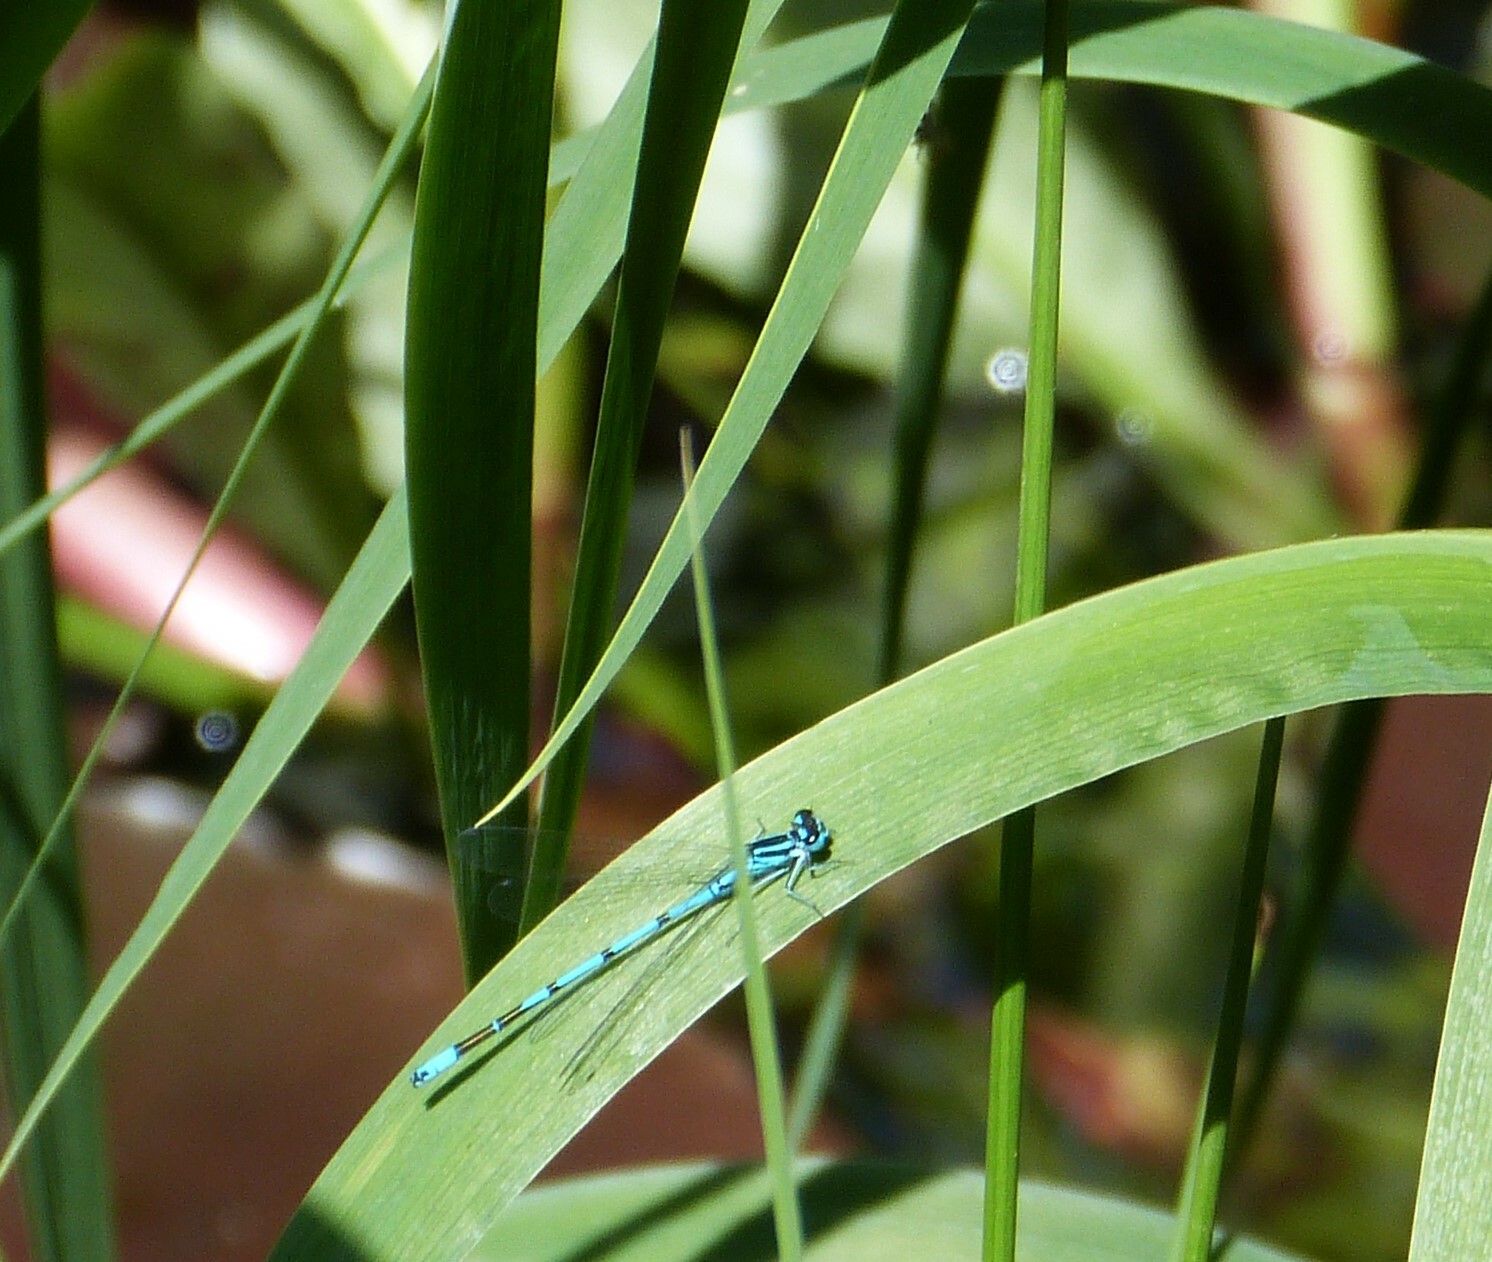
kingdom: Animalia
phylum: Arthropoda
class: Insecta
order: Odonata
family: Coenagrionidae
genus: Coenagrion
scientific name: Coenagrion puella
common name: Azure damselfly
